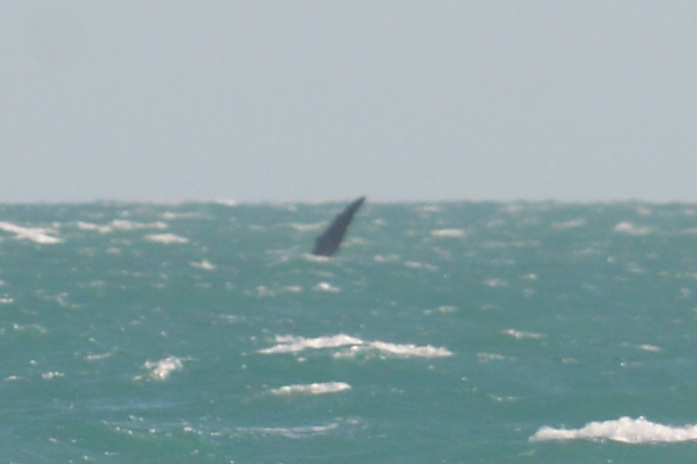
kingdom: Animalia
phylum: Chordata
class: Mammalia
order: Cetacea
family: Balaenopteridae
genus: Megaptera
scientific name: Megaptera novaeangliae
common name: Humpback whale
